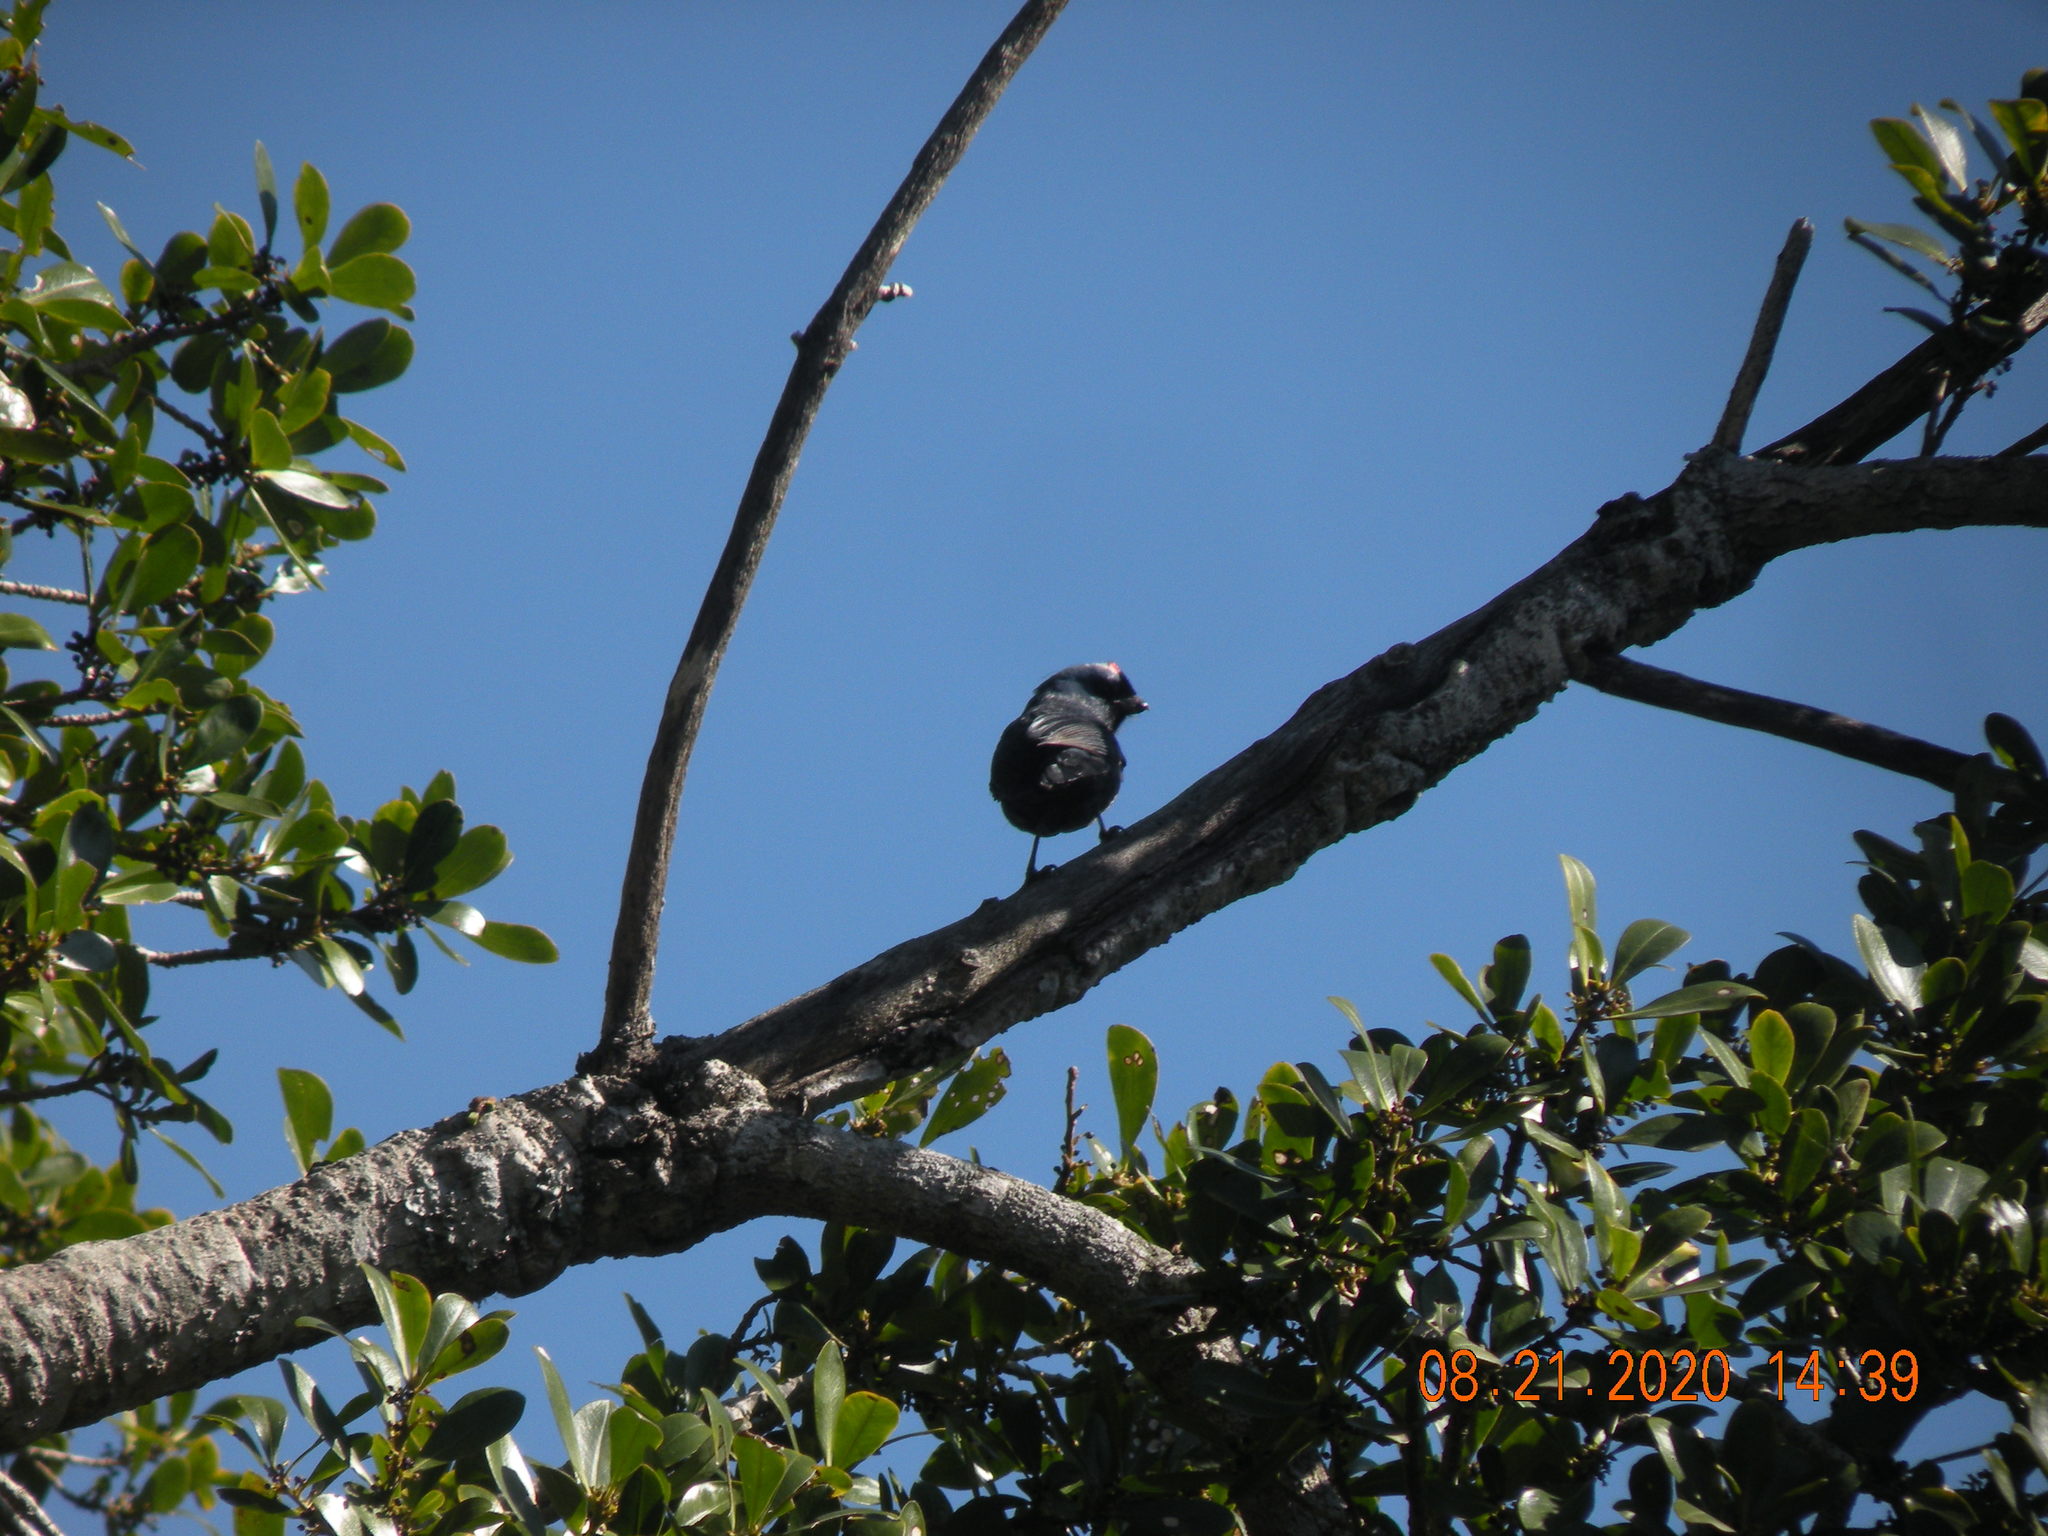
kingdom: Animalia
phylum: Chordata
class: Aves
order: Passeriformes
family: Thraupidae
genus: Stephanophorus
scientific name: Stephanophorus diadematus
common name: Diademed tanager
